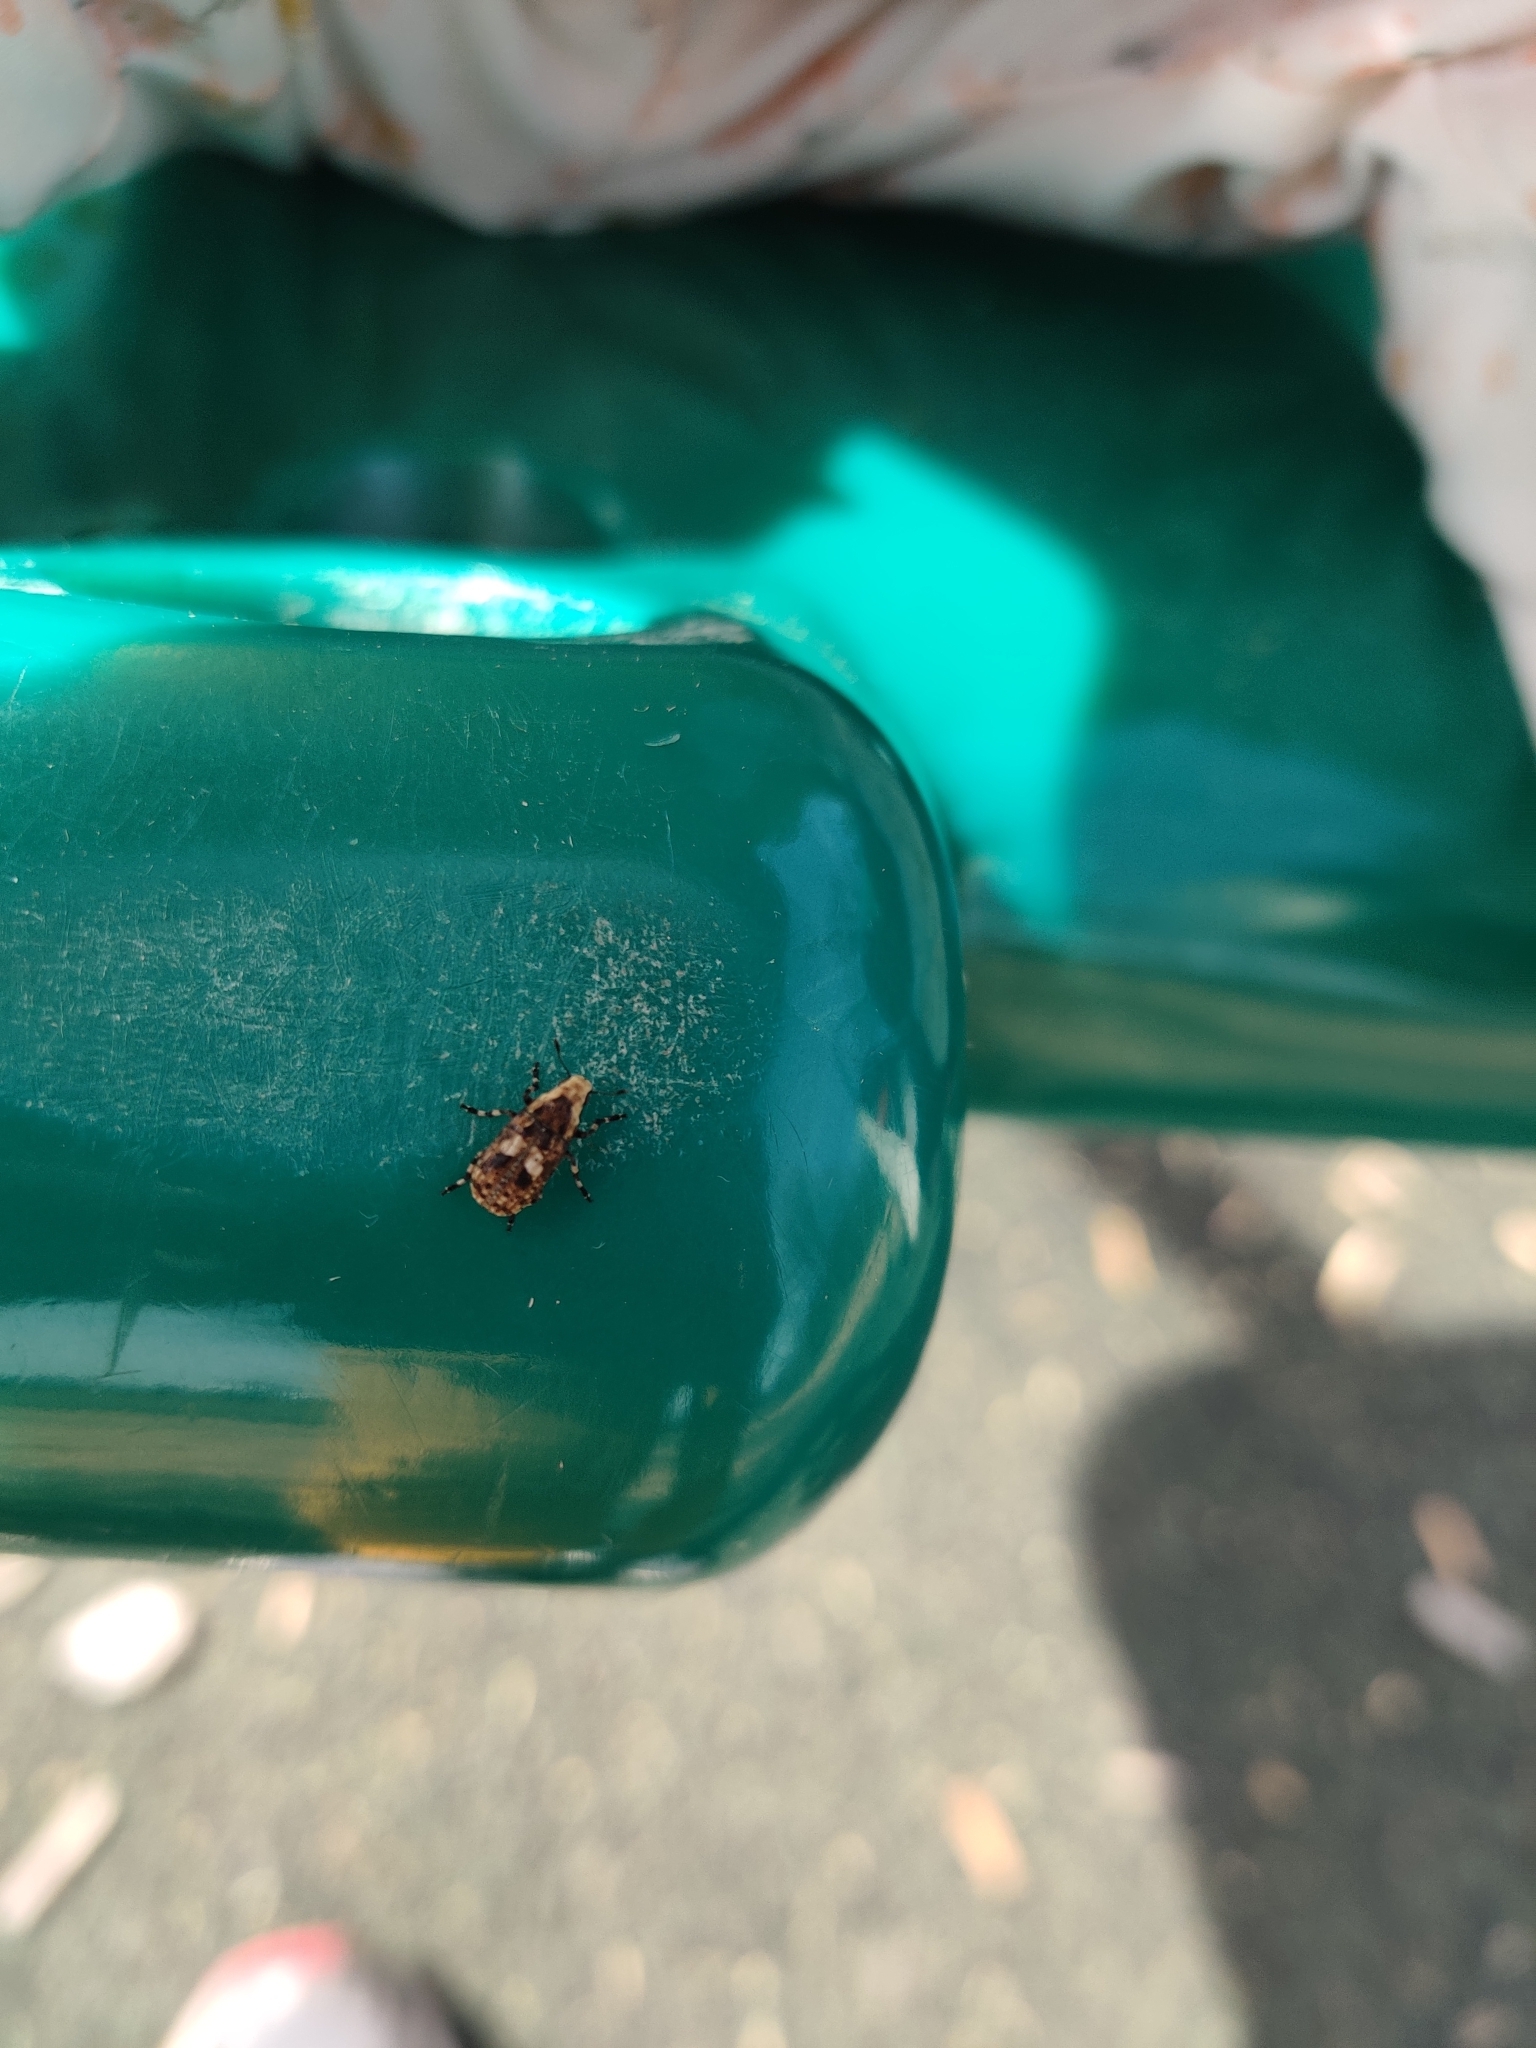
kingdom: Animalia
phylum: Arthropoda
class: Insecta
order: Coleoptera
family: Anthribidae
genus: Euparius
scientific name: Euparius marmoreus
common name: Marbled fungus weevil
